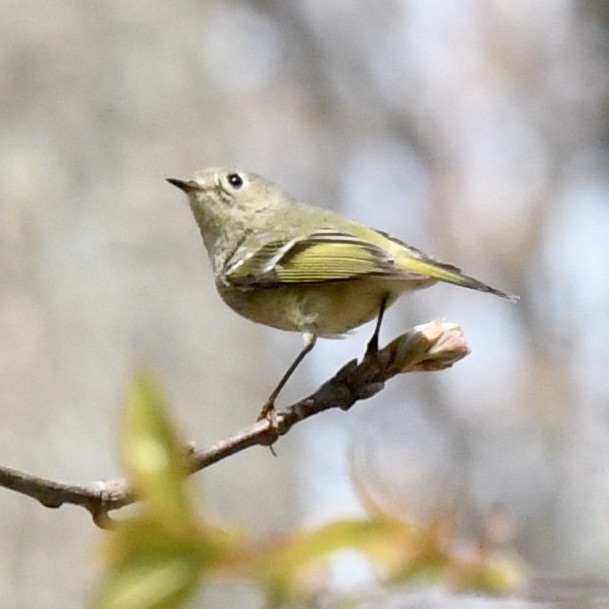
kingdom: Animalia
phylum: Chordata
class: Aves
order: Passeriformes
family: Regulidae
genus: Regulus
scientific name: Regulus calendula
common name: Ruby-crowned kinglet
